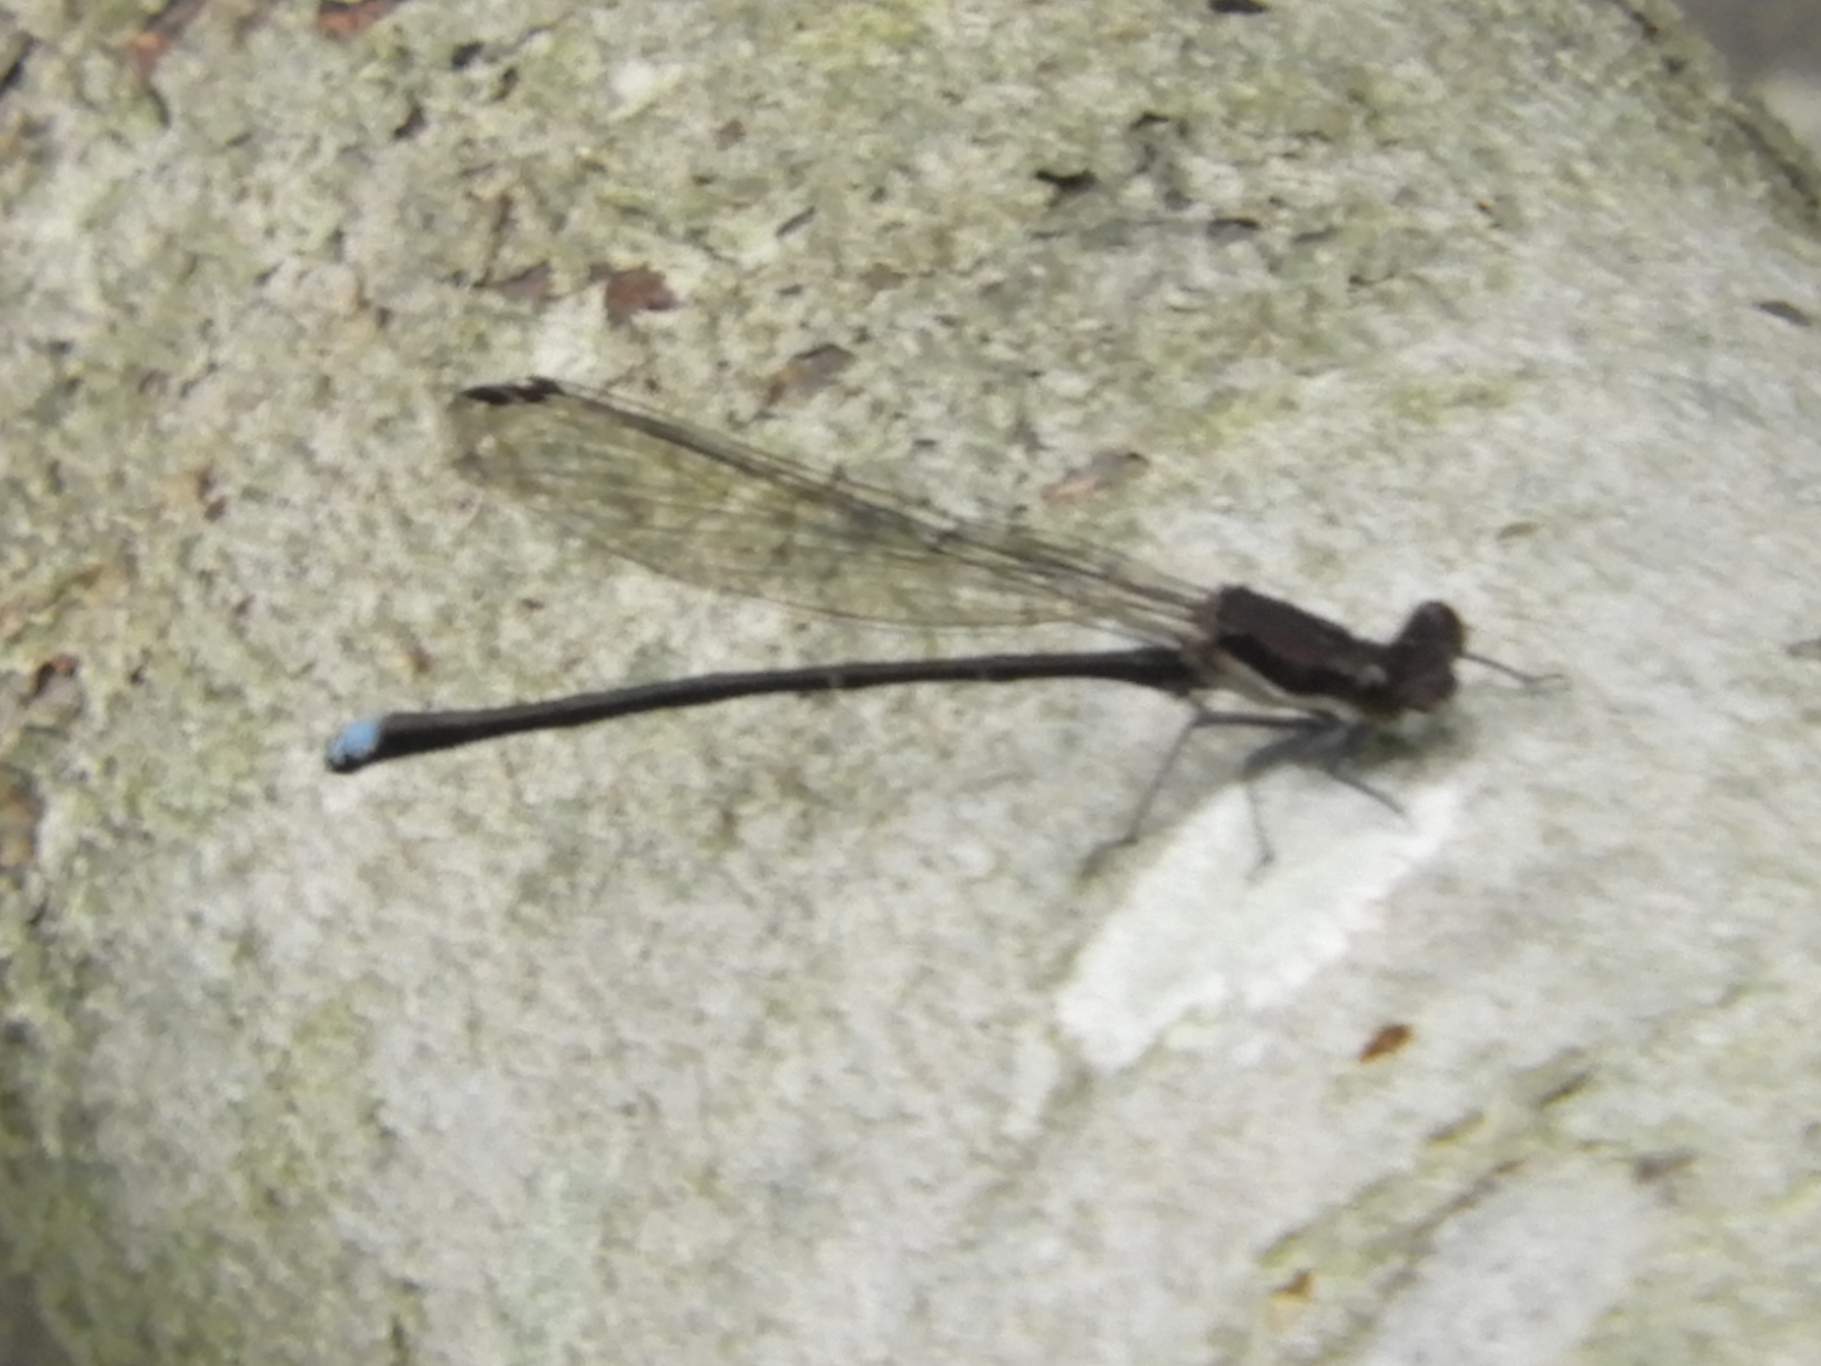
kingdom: Animalia
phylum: Arthropoda
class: Insecta
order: Odonata
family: Coenagrionidae
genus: Argia
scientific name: Argia tibialis
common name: Blue-tipped dancer
